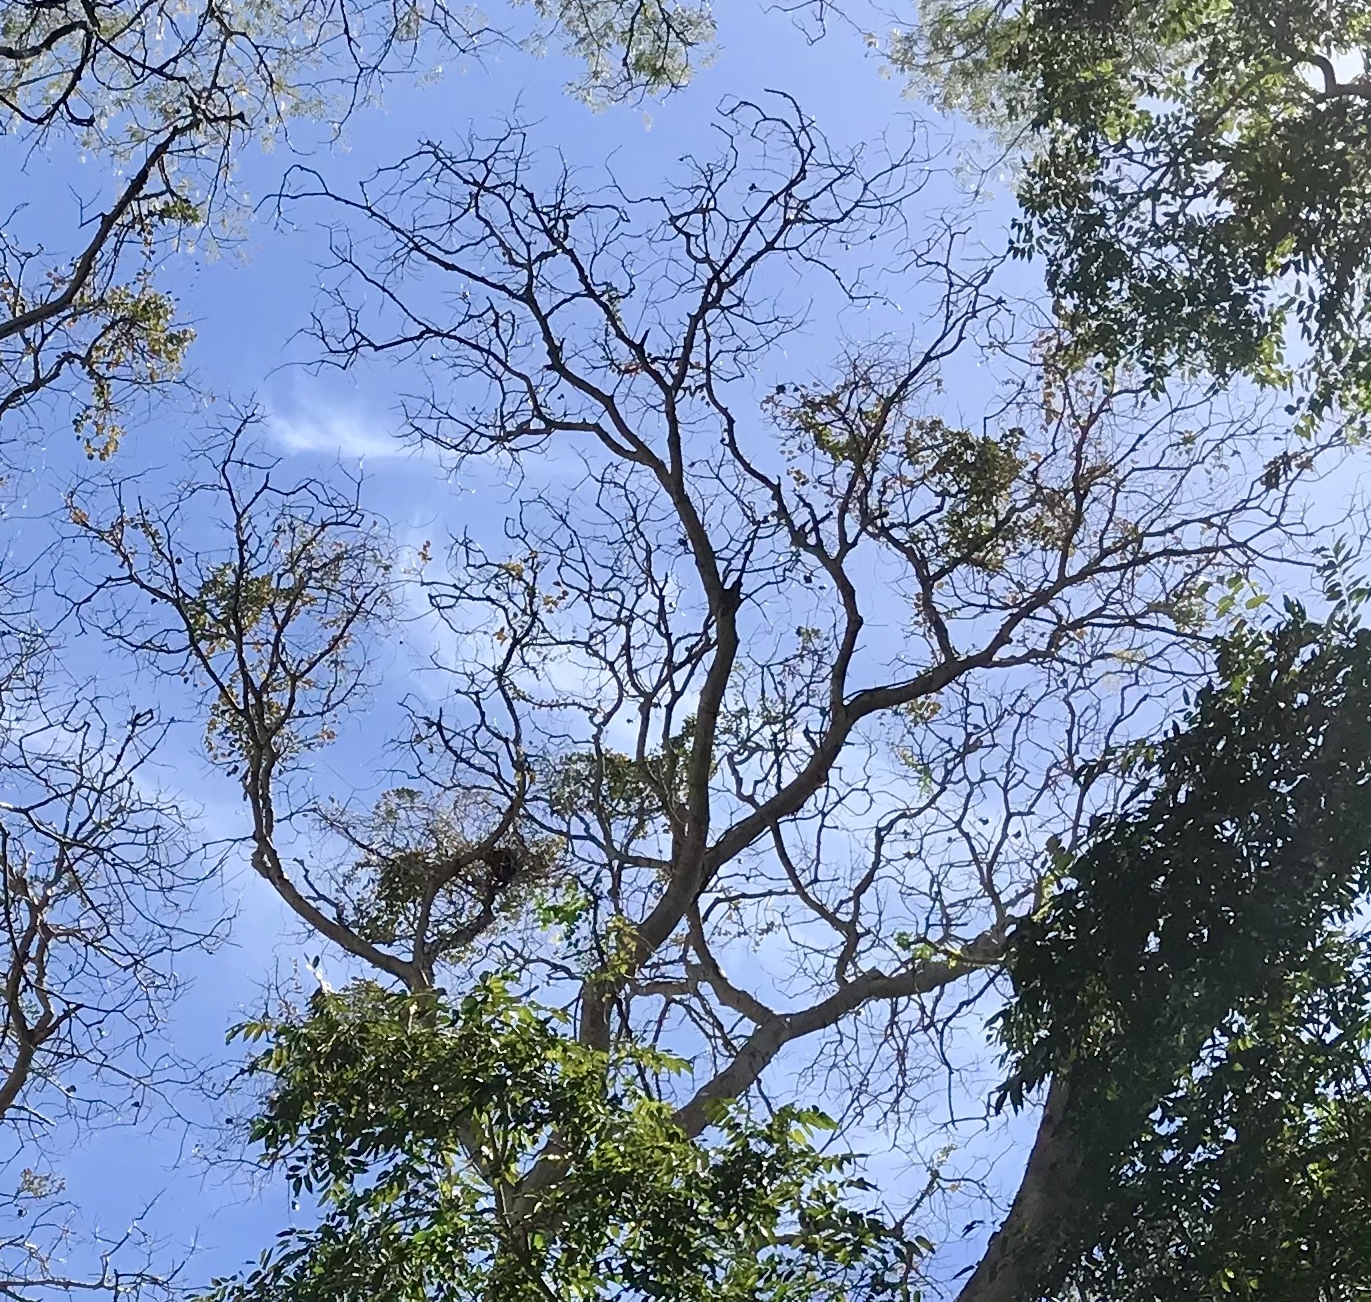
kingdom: Plantae
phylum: Tracheophyta
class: Magnoliopsida
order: Fabales
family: Fabaceae
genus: Enterolobium
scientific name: Enterolobium cyclocarpum
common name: Ear tree
